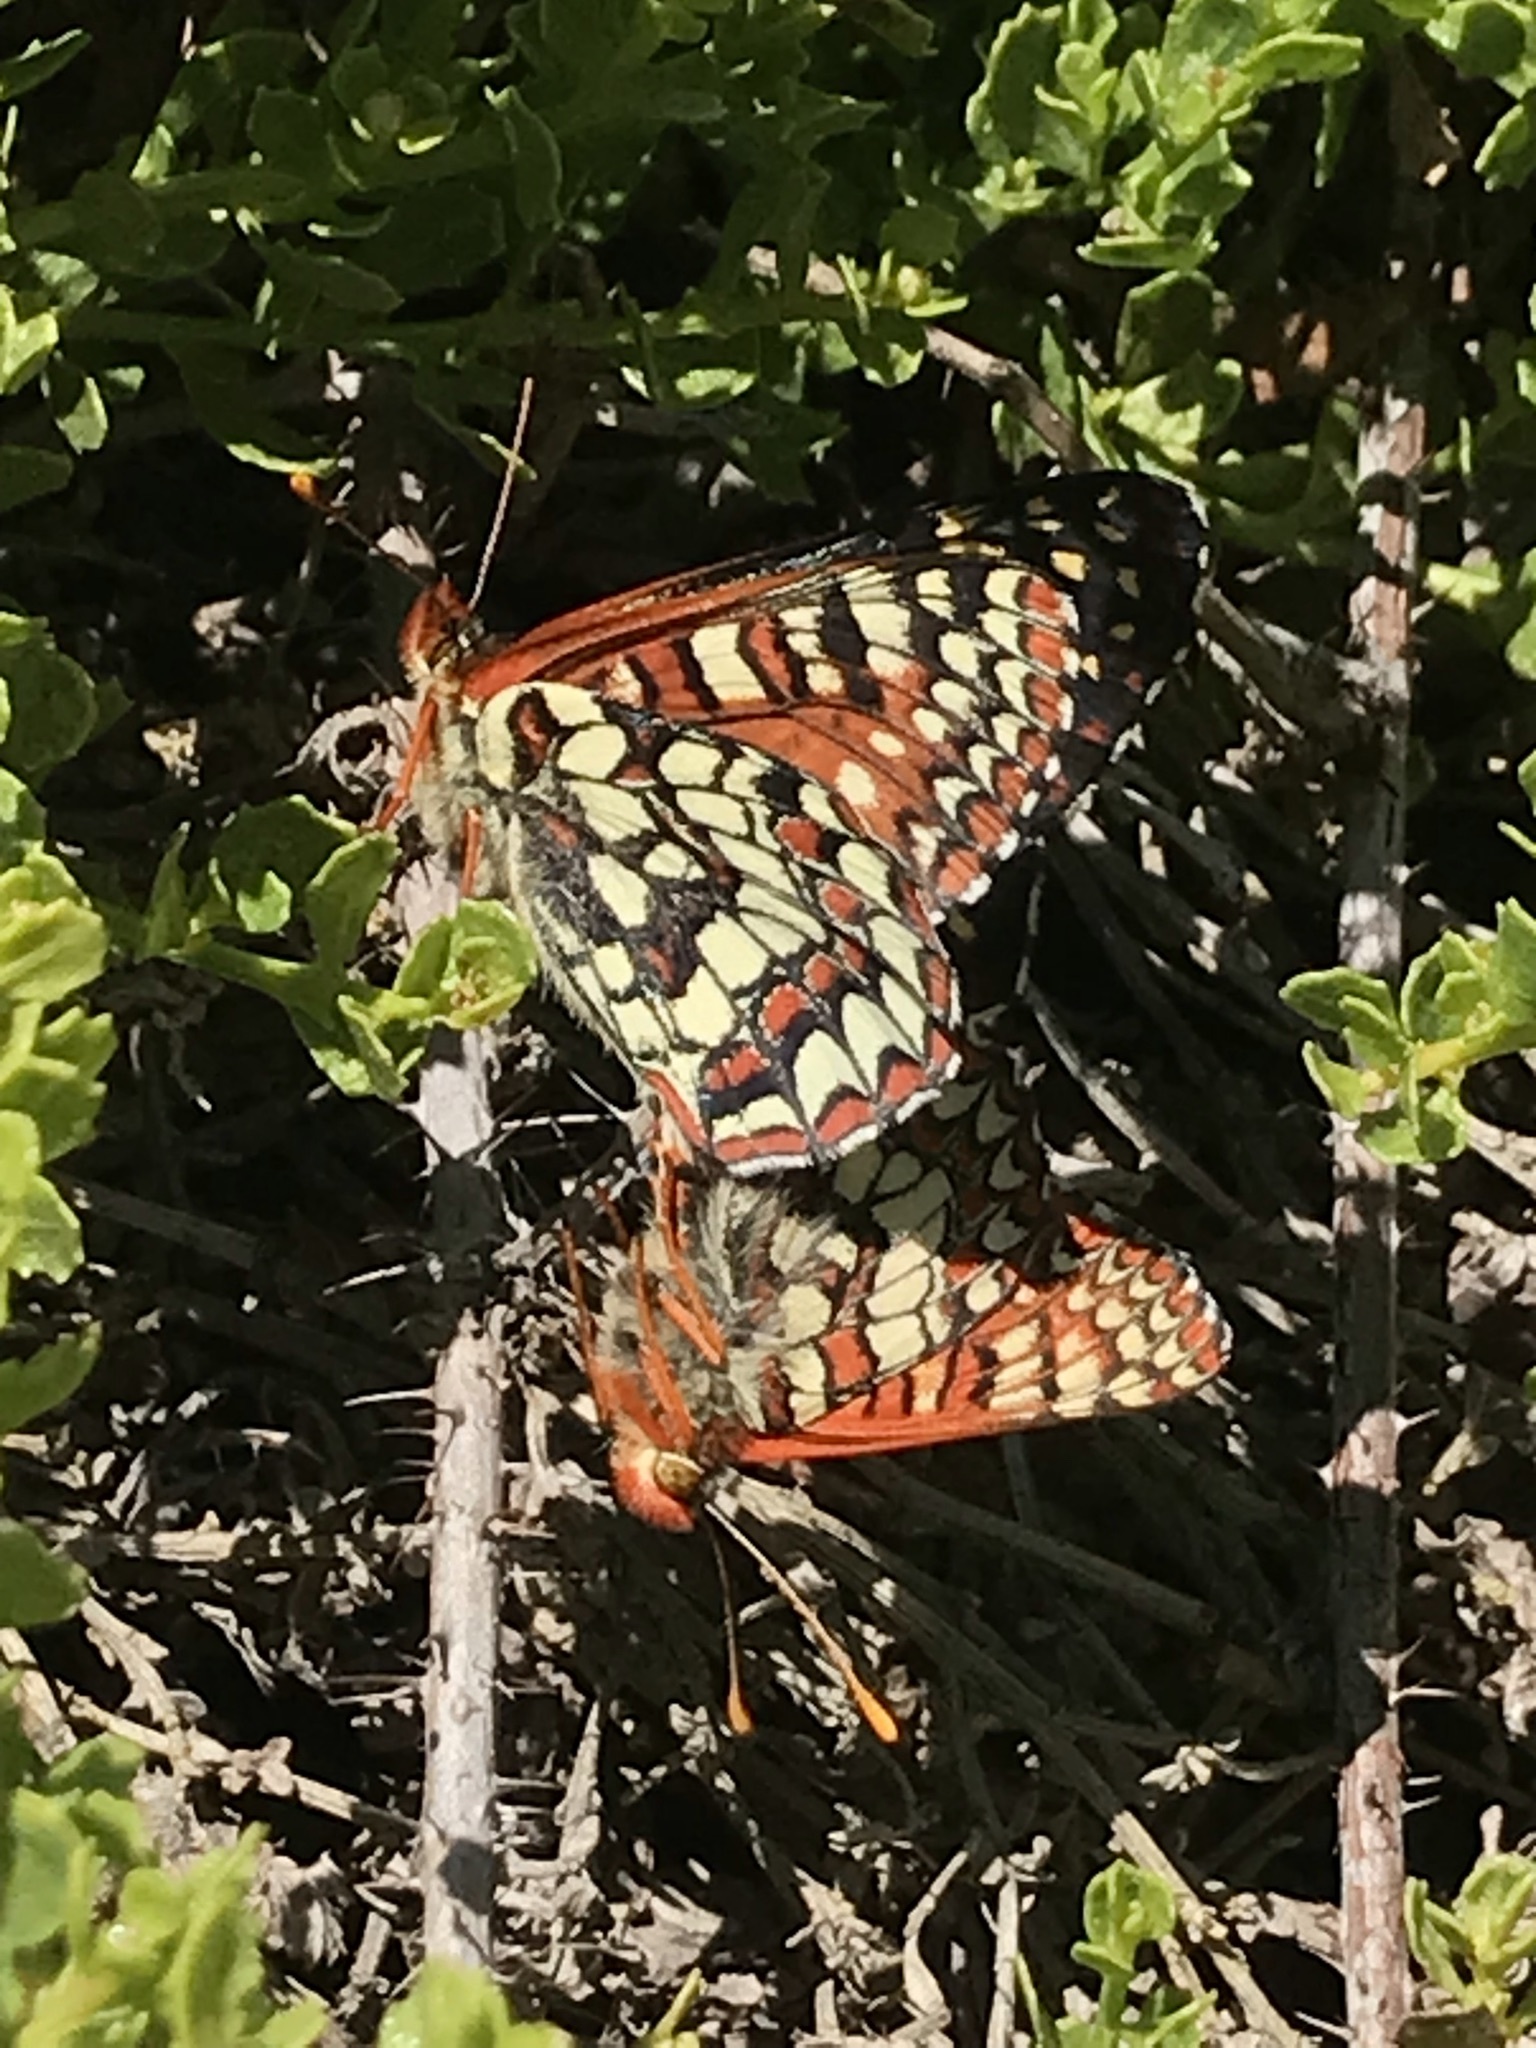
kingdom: Animalia
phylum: Arthropoda
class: Insecta
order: Lepidoptera
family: Nymphalidae
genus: Occidryas
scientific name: Occidryas chalcedona
